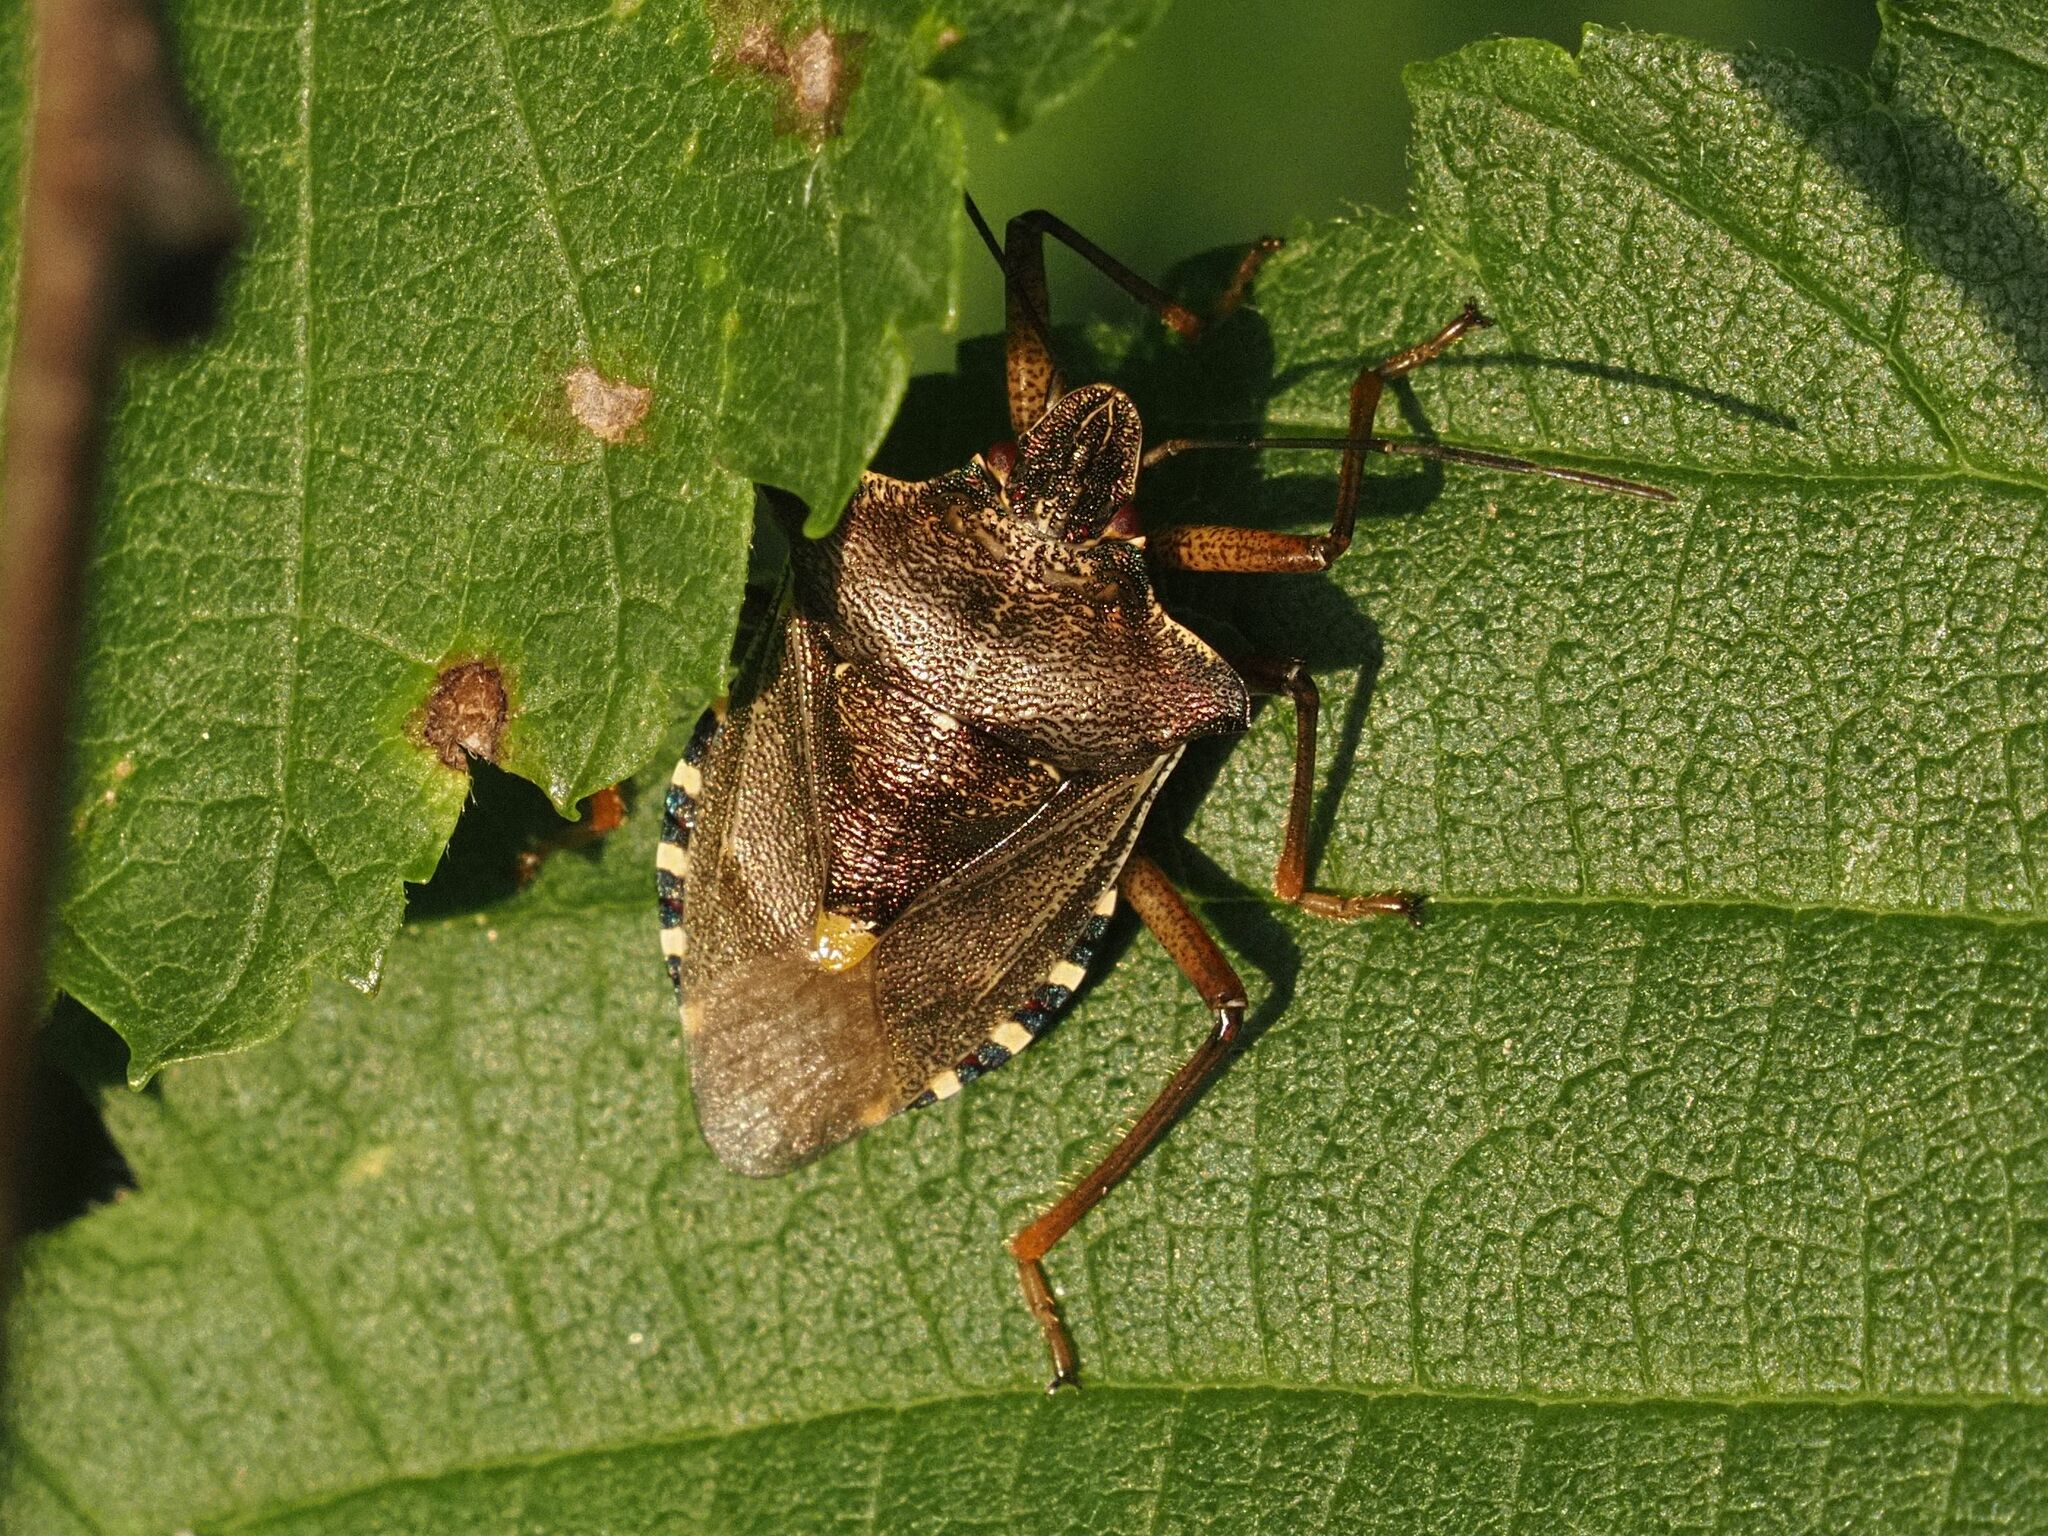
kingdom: Animalia
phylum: Arthropoda
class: Insecta
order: Hemiptera
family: Pentatomidae
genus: Pentatoma
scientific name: Pentatoma rufipes
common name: Forest bug
